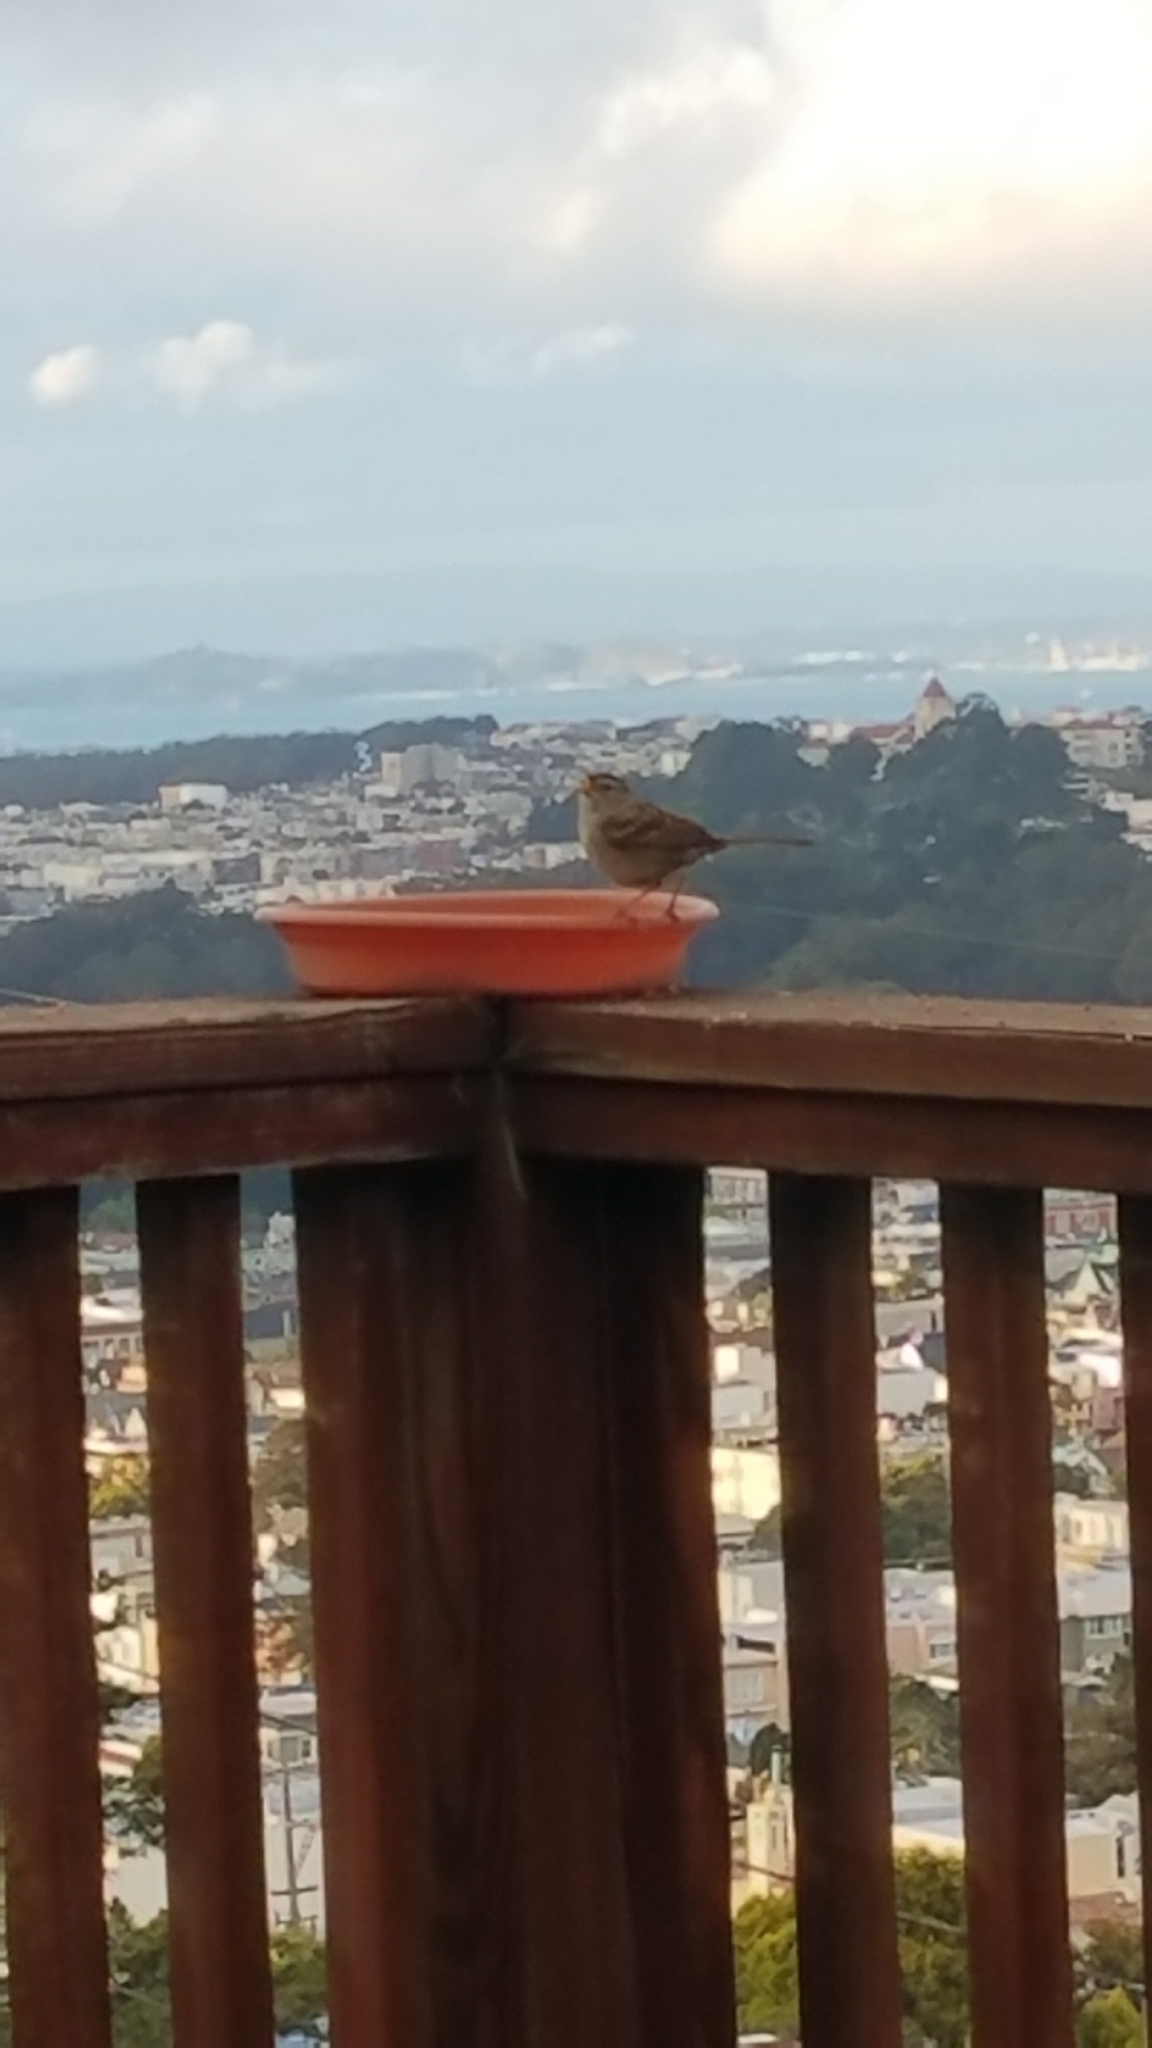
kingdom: Animalia
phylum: Chordata
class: Aves
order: Passeriformes
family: Passerellidae
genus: Zonotrichia
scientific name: Zonotrichia leucophrys
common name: White-crowned sparrow
